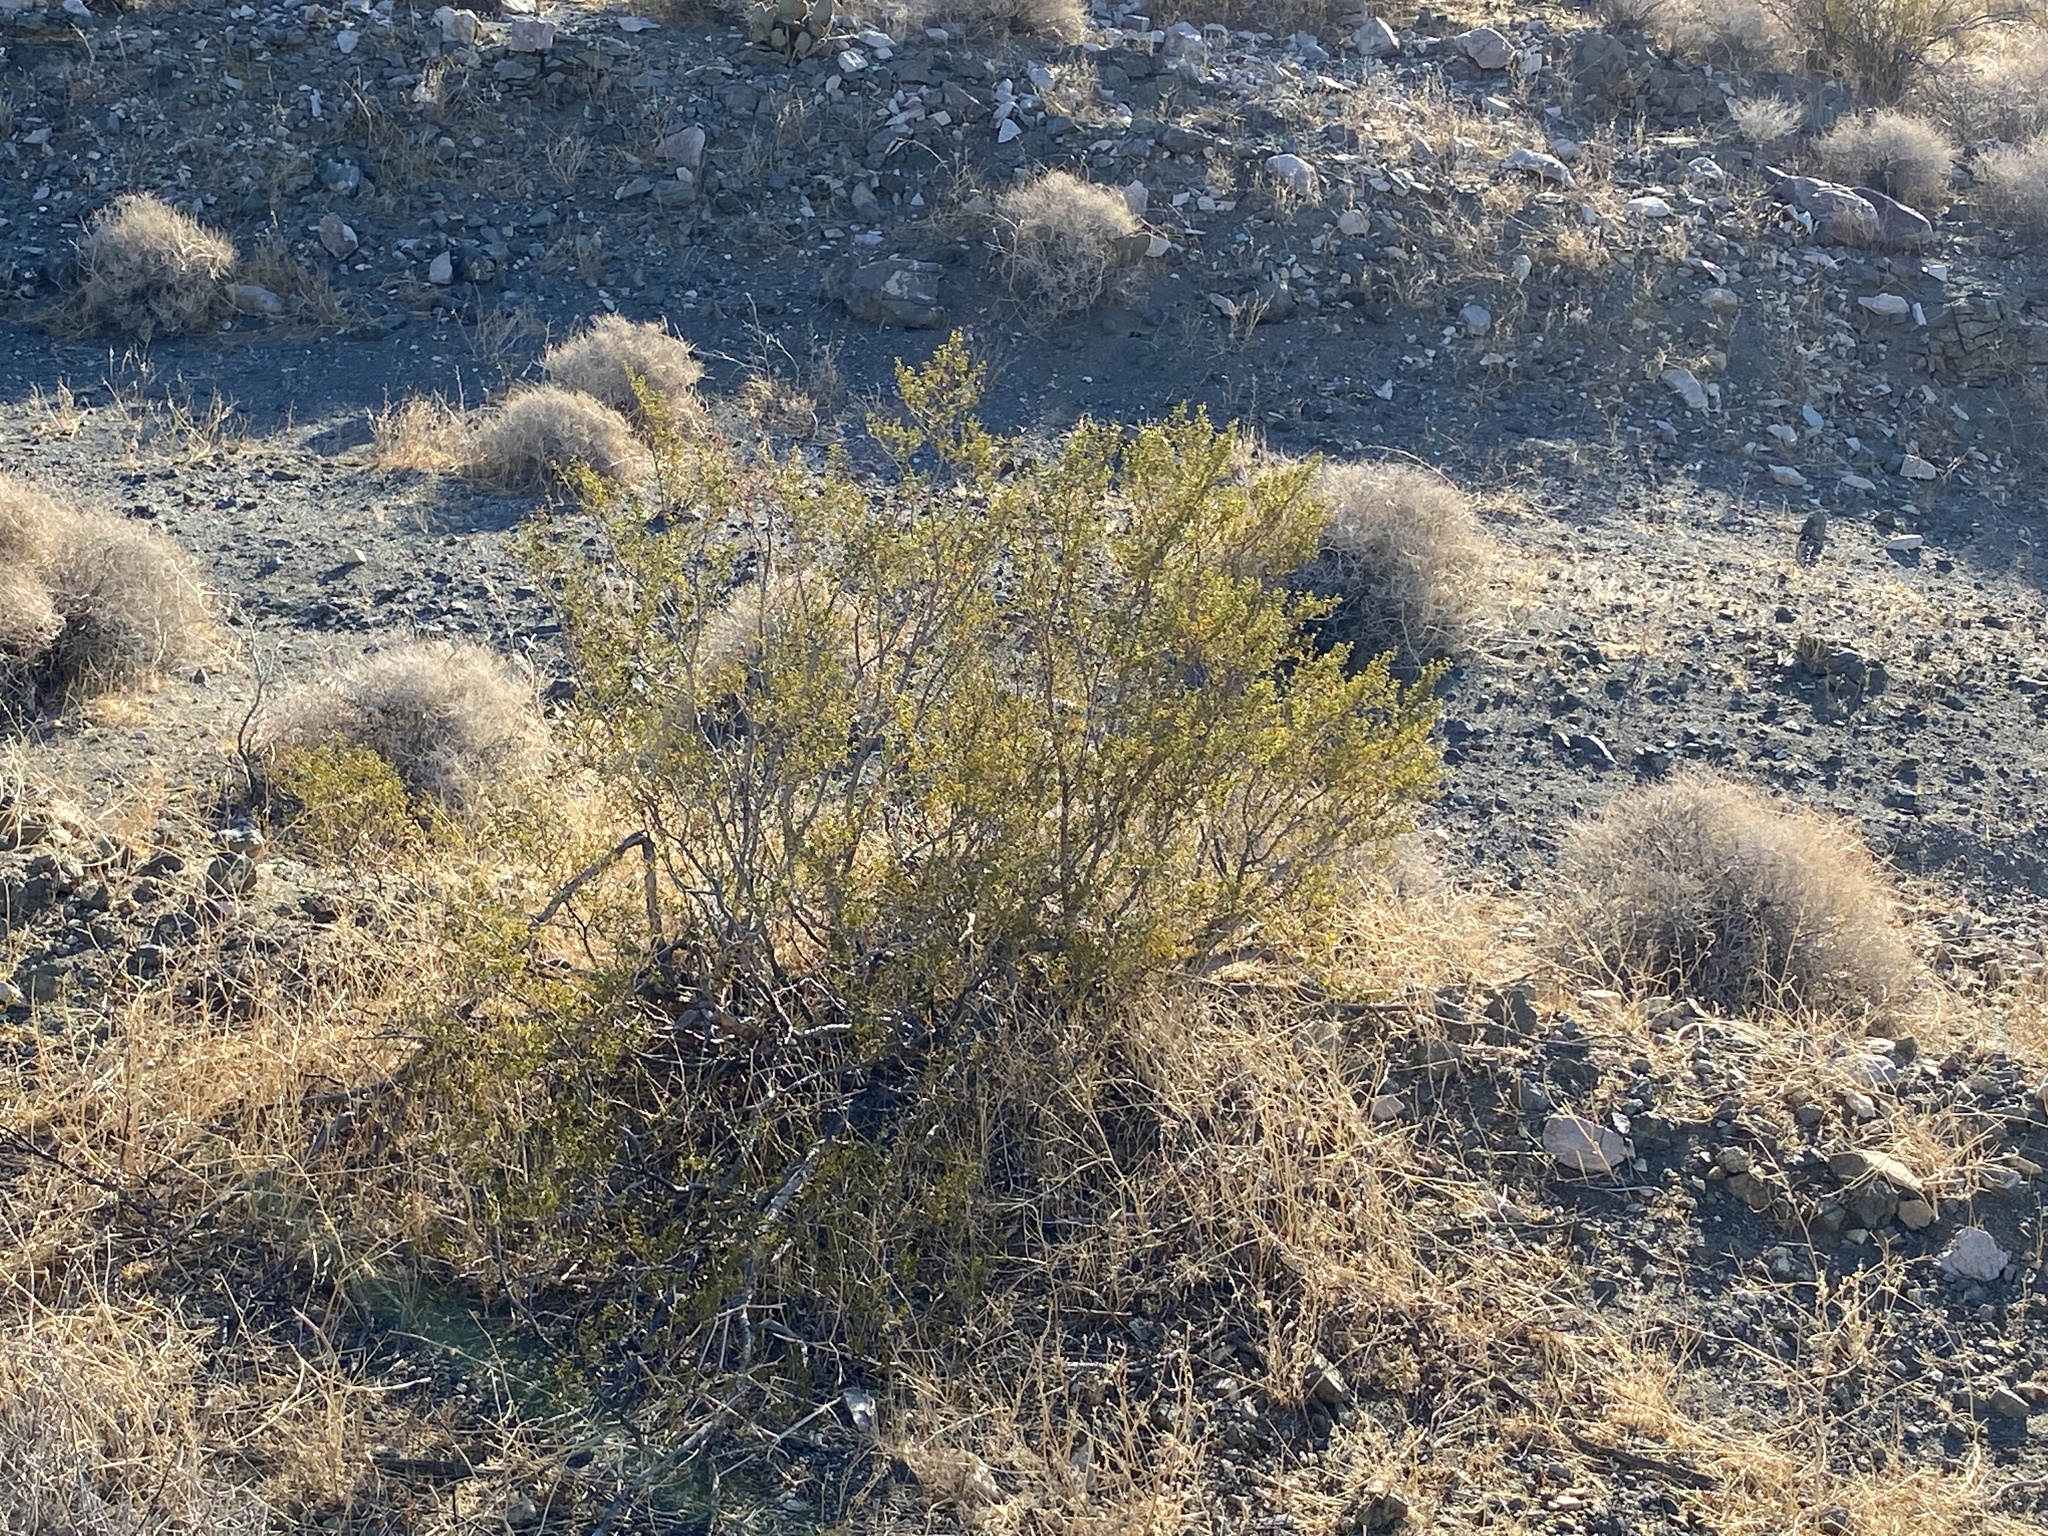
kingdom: Plantae
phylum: Tracheophyta
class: Magnoliopsida
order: Zygophyllales
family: Zygophyllaceae
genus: Larrea
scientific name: Larrea tridentata
